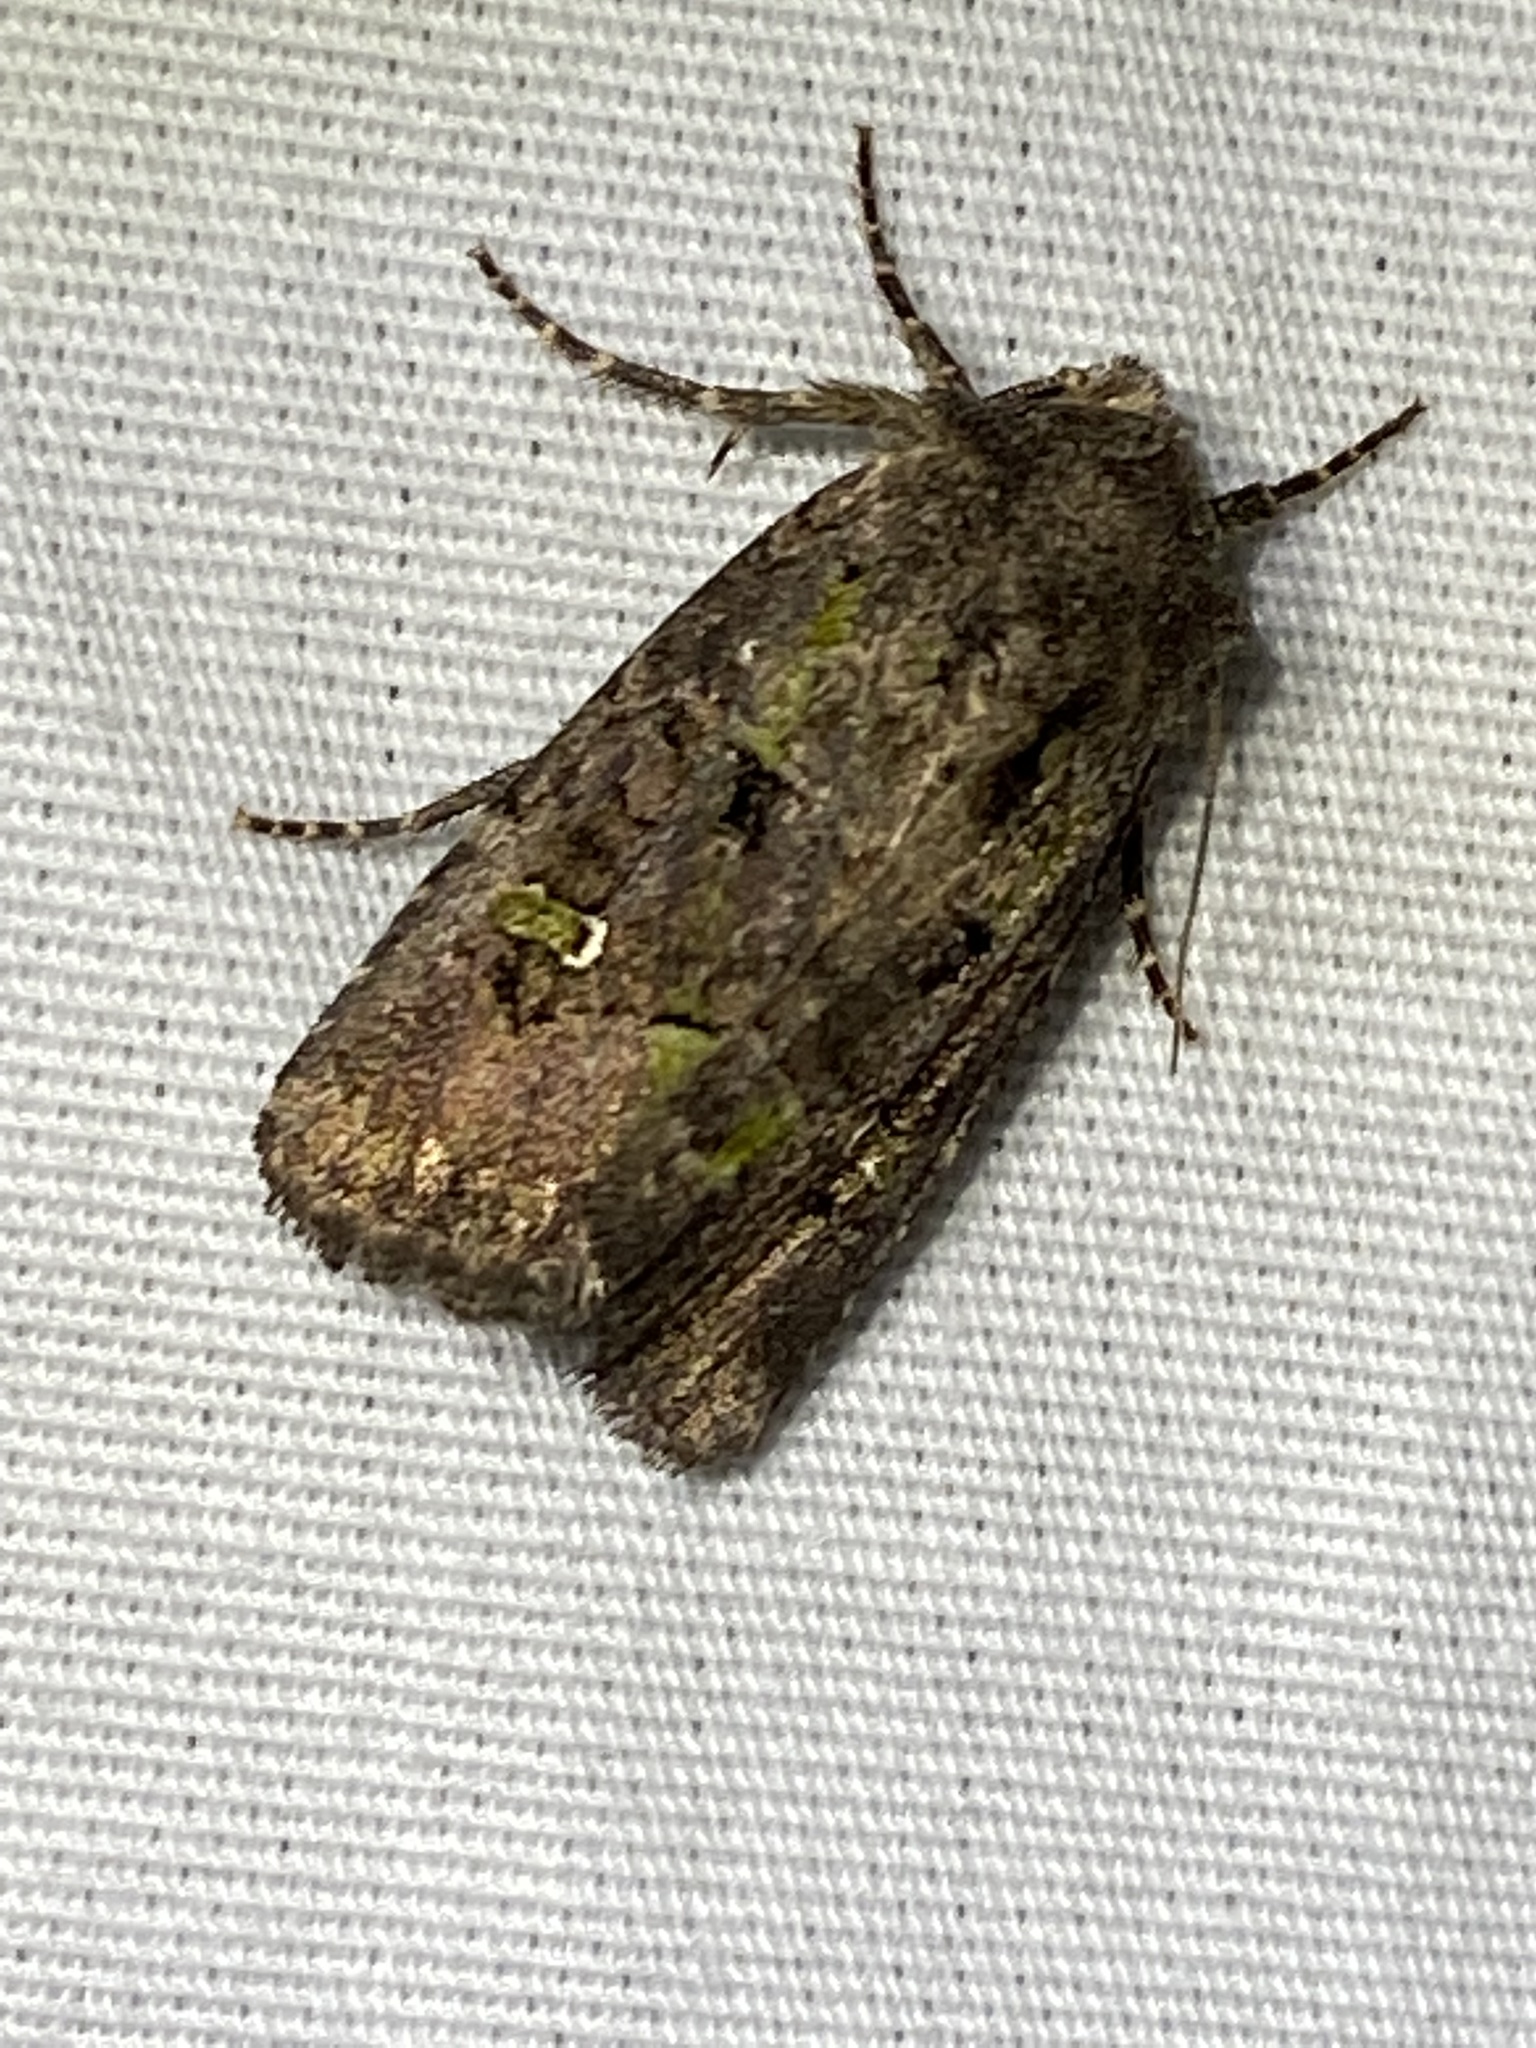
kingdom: Animalia
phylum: Arthropoda
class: Insecta
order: Lepidoptera
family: Noctuidae
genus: Lacinipolia
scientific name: Lacinipolia renigera
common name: Kidney-spotted minor
